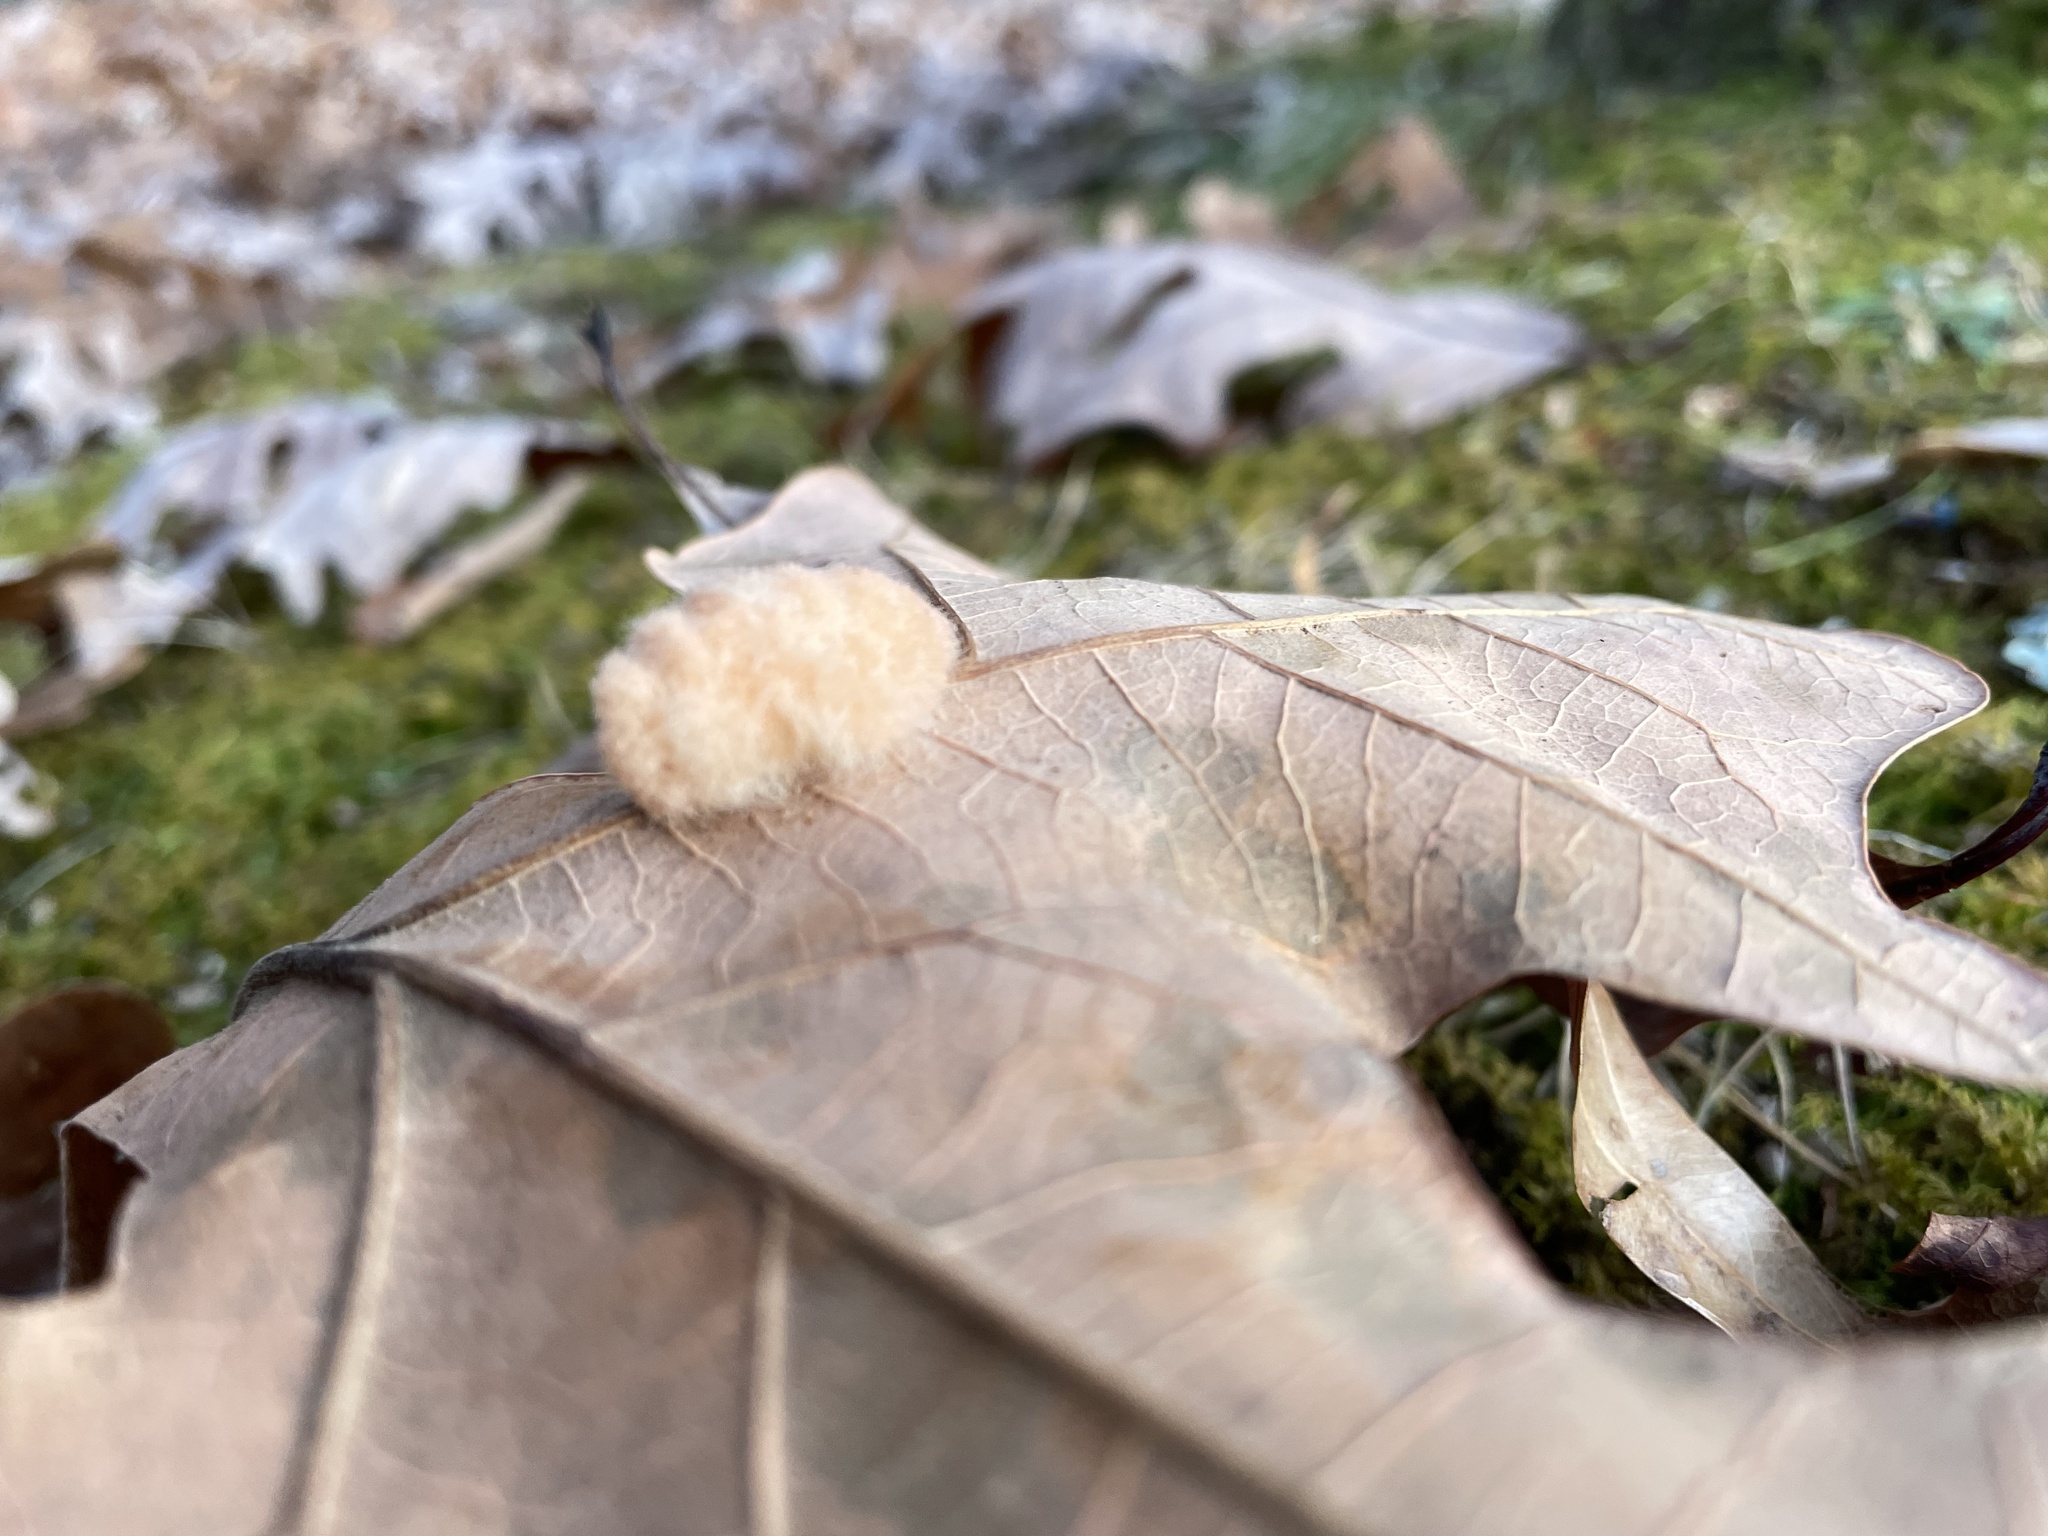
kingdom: Animalia
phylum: Arthropoda
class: Insecta
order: Hymenoptera
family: Cynipidae
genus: Andricus
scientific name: Andricus Druon pattoni
